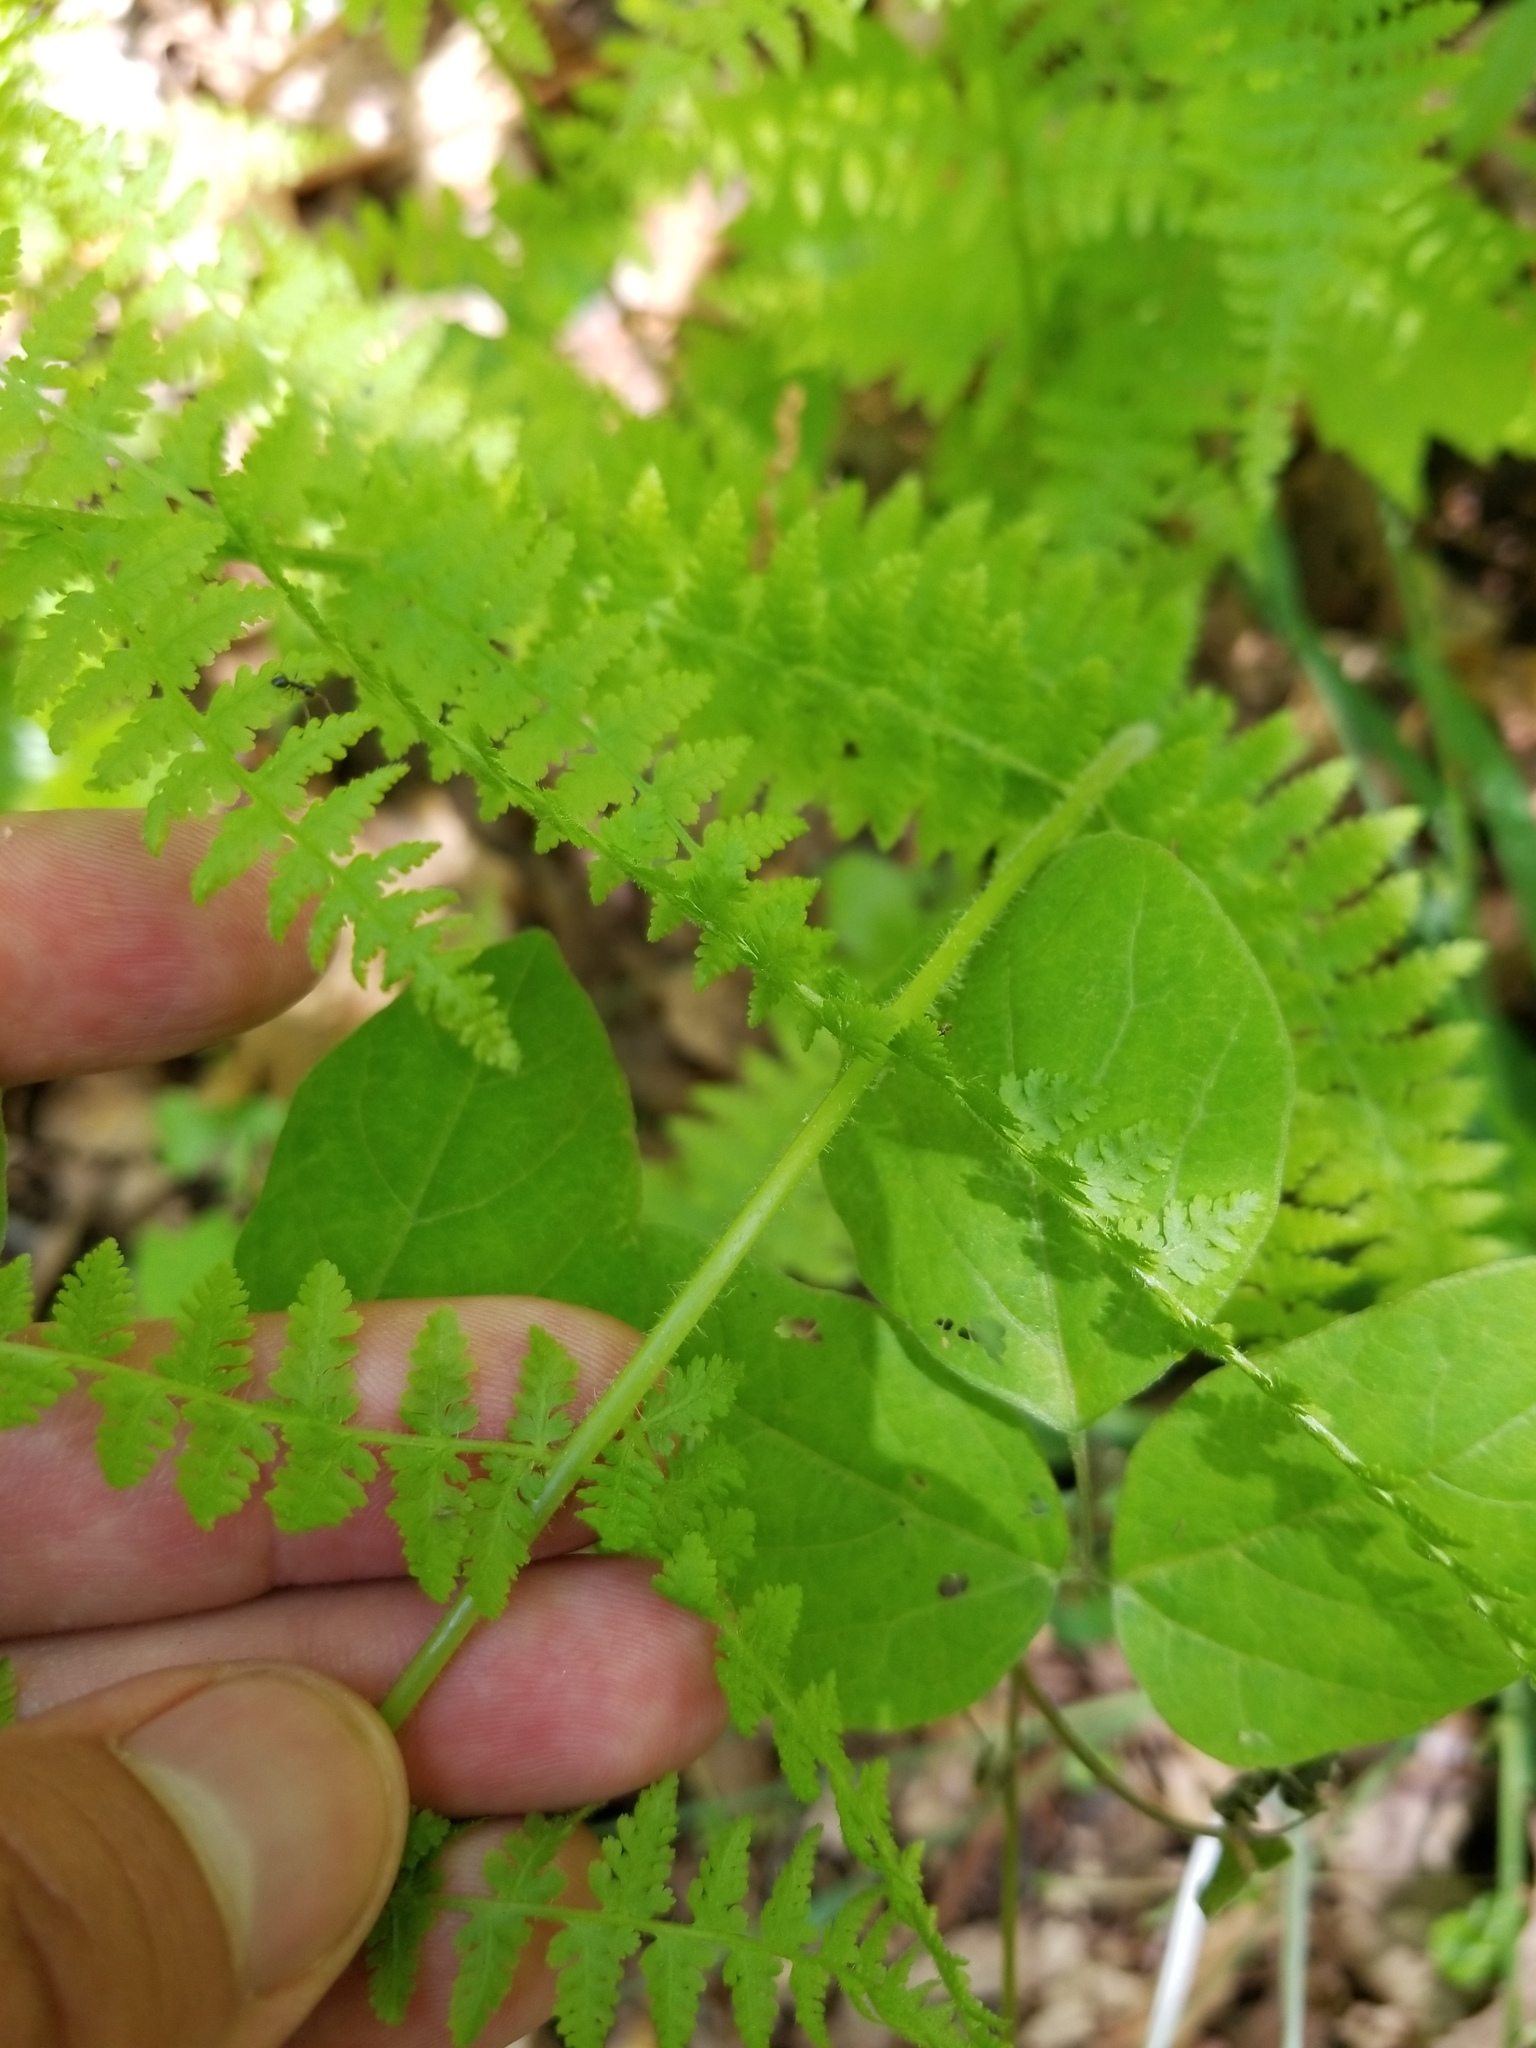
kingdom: Plantae
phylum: Tracheophyta
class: Polypodiopsida
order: Polypodiales
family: Dennstaedtiaceae
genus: Sitobolium
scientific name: Sitobolium punctilobum
